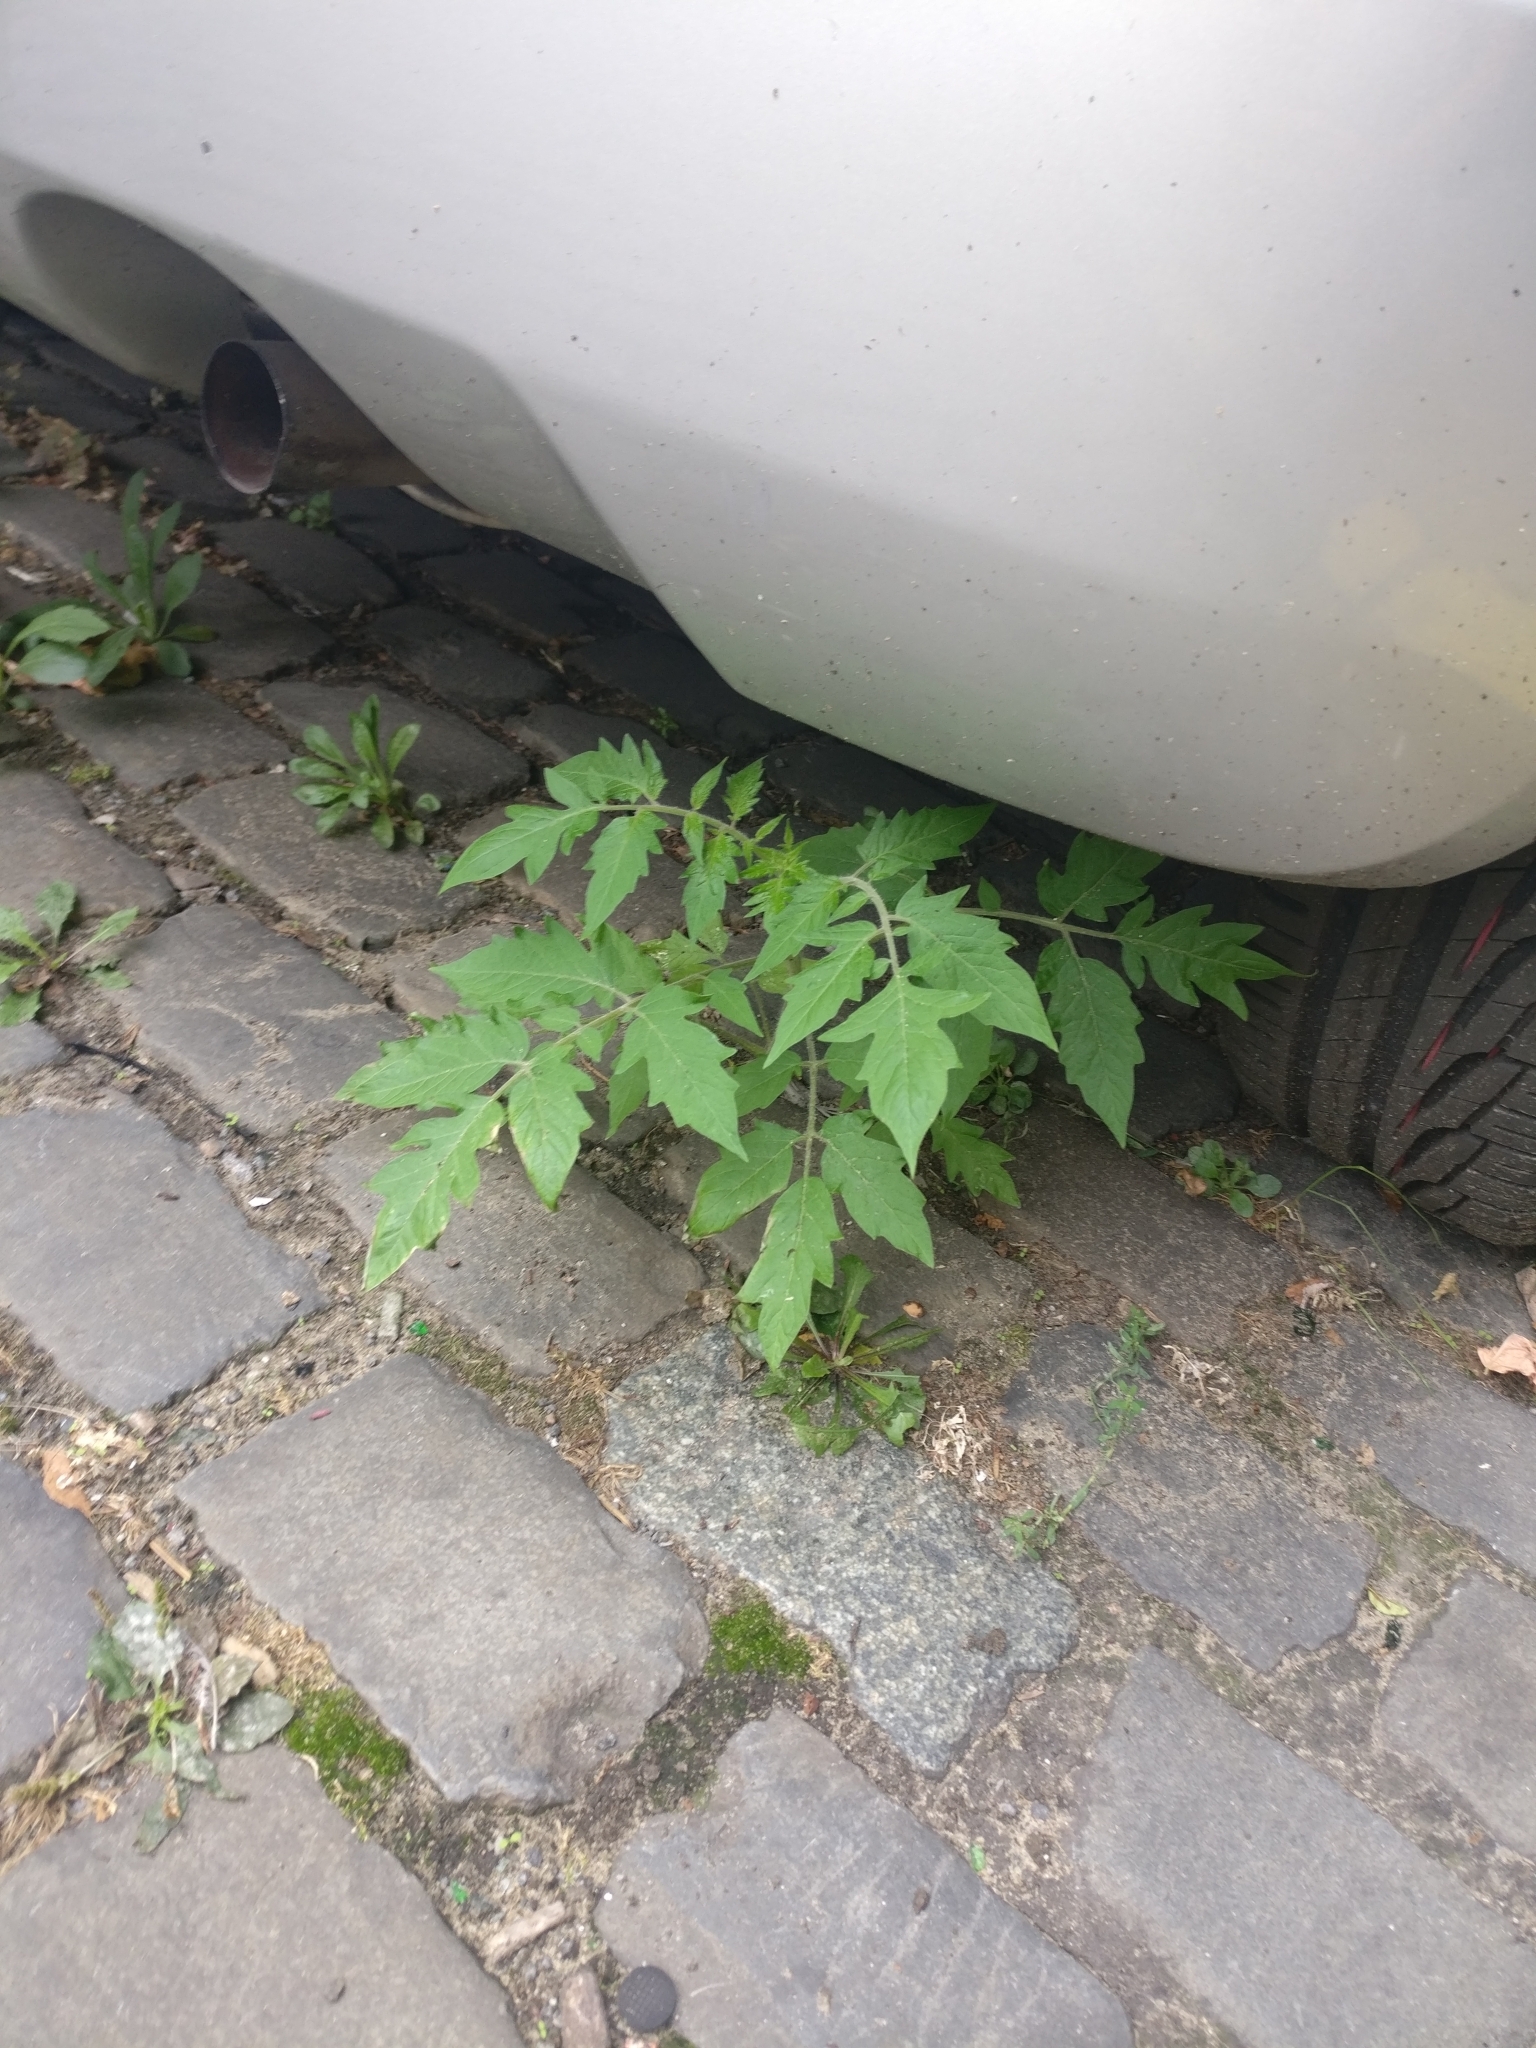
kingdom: Plantae
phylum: Tracheophyta
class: Magnoliopsida
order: Solanales
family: Solanaceae
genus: Solanum
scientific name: Solanum lycopersicum
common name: Garden tomato
